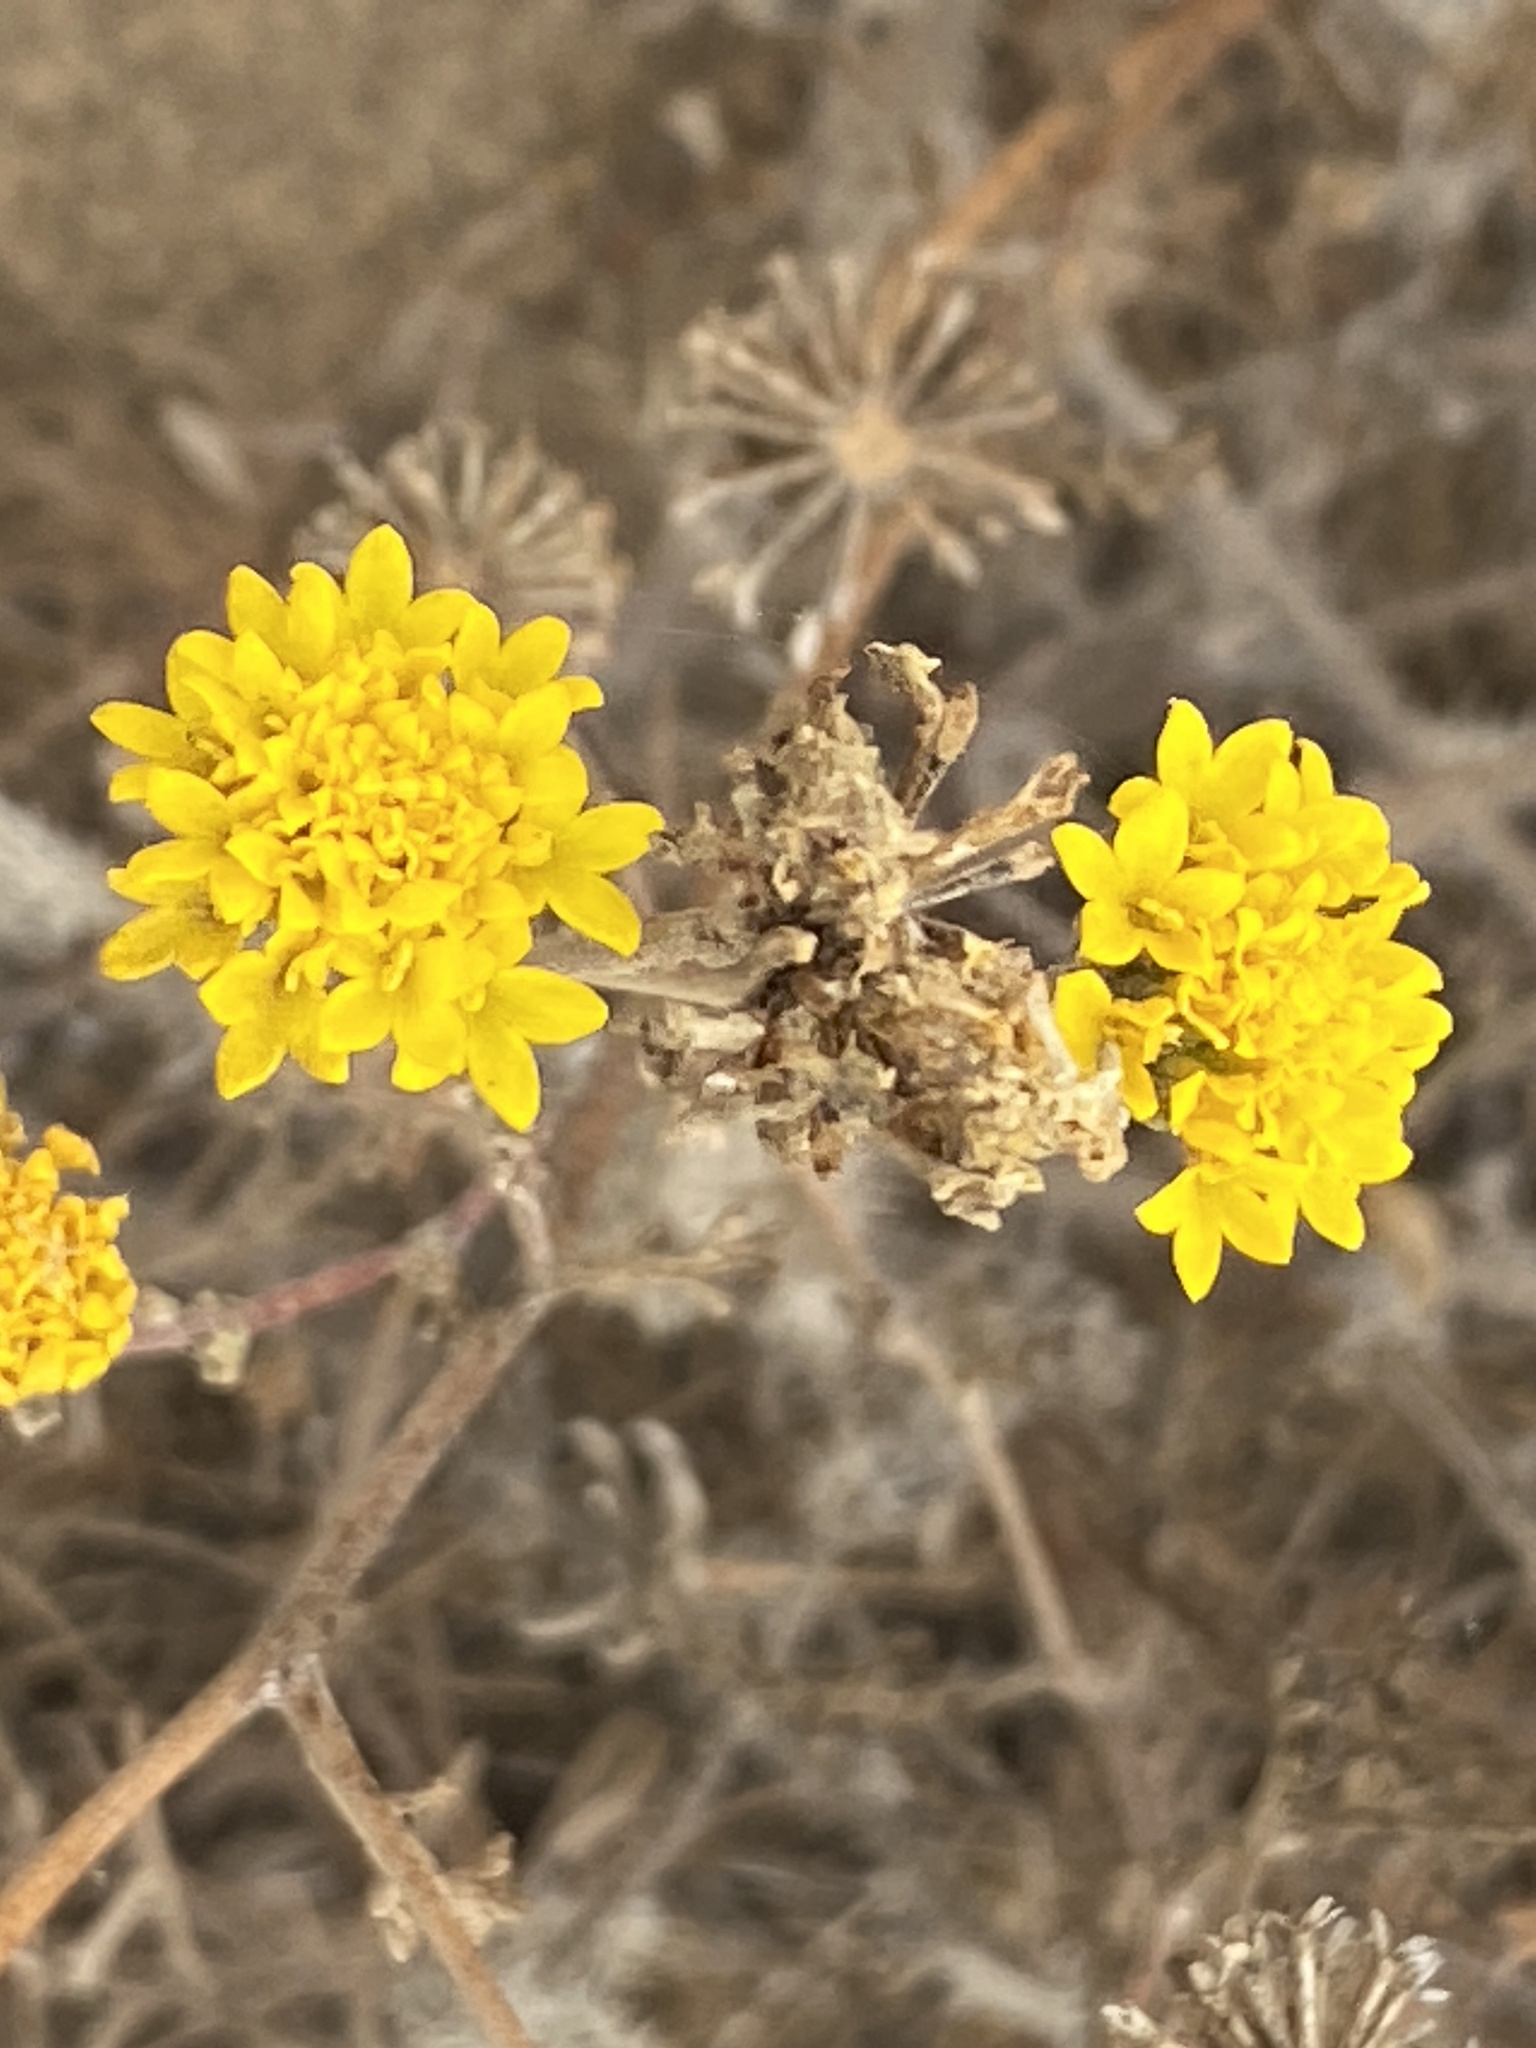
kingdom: Plantae
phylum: Tracheophyta
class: Magnoliopsida
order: Asterales
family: Asteraceae
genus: Chaenactis
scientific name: Chaenactis glabriuscula
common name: Yellow pincushion
